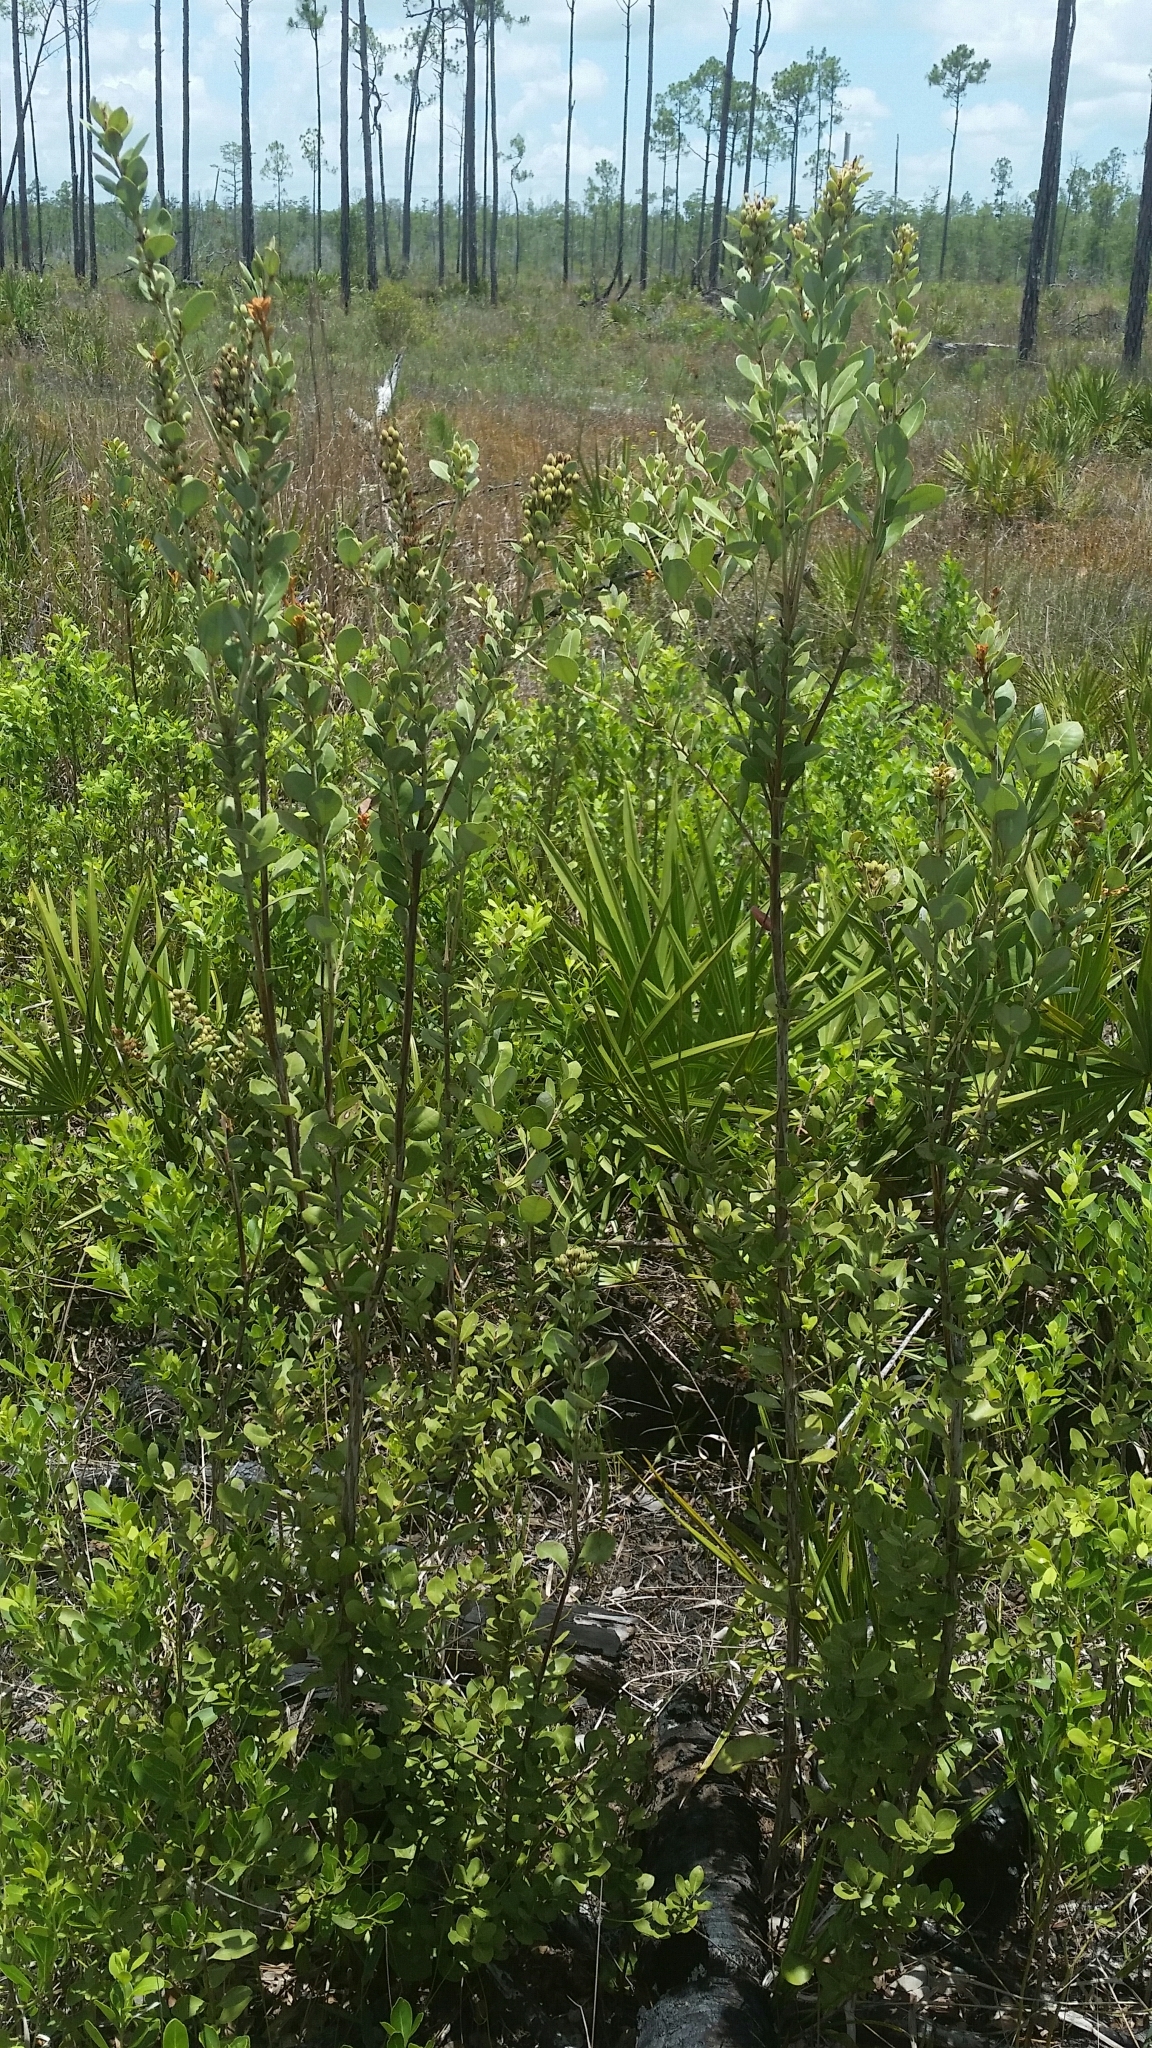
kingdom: Plantae
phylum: Tracheophyta
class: Magnoliopsida
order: Ericales
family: Ericaceae
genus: Lyonia
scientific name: Lyonia fruticosa
